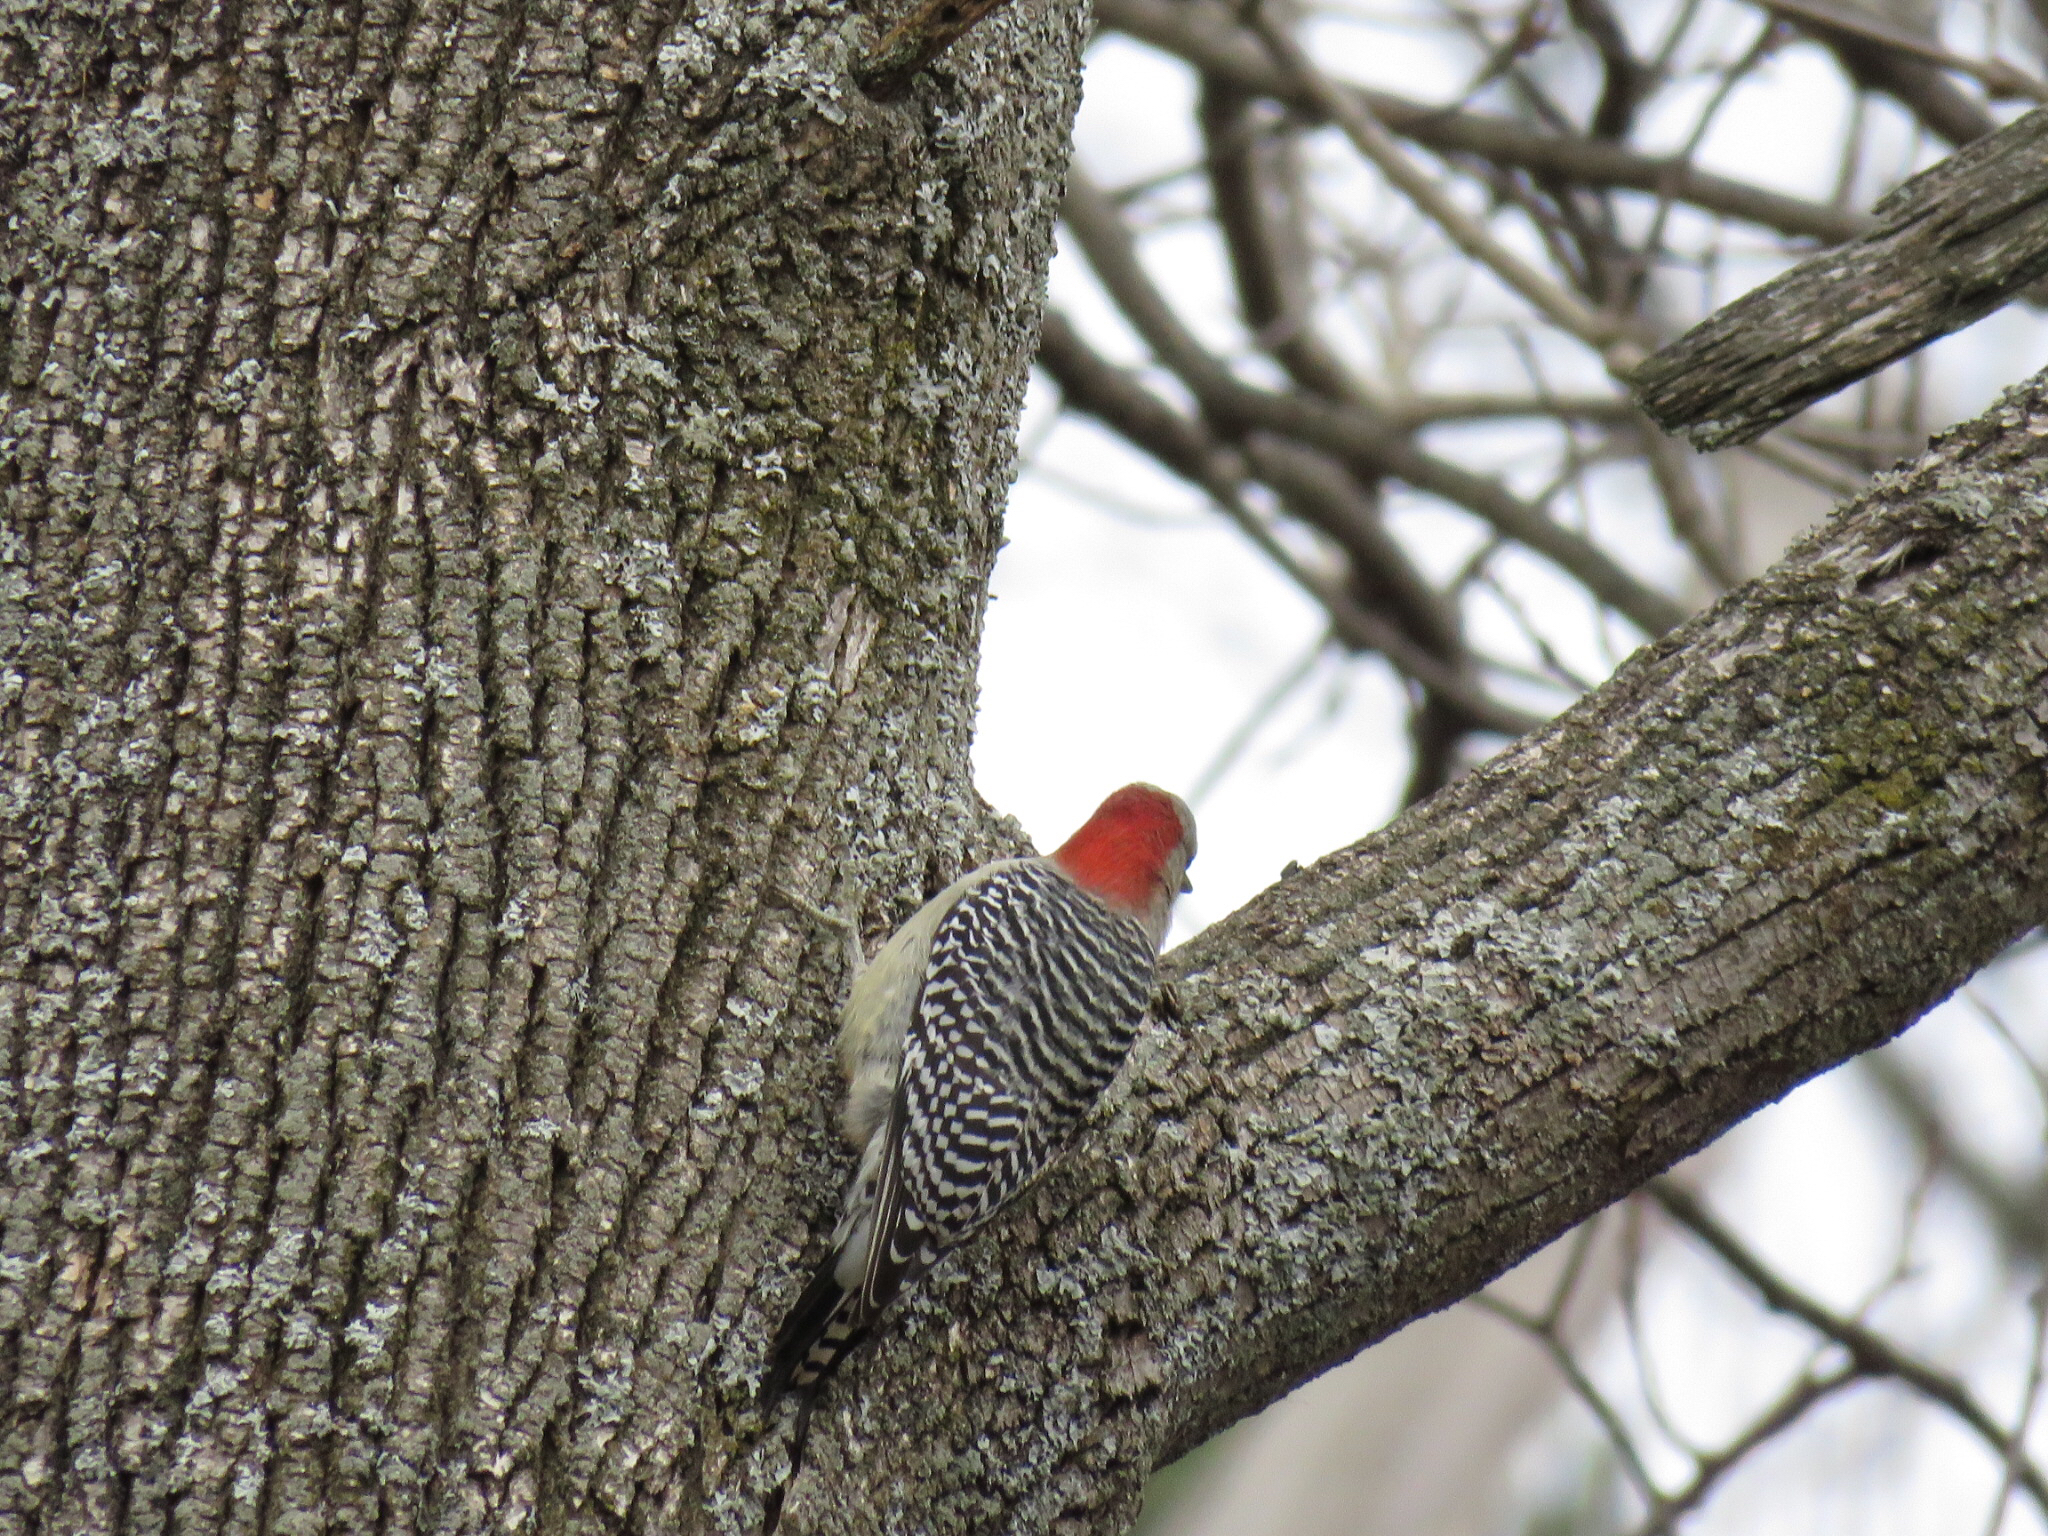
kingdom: Animalia
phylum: Chordata
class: Aves
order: Piciformes
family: Picidae
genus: Melanerpes
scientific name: Melanerpes carolinus
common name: Red-bellied woodpecker
